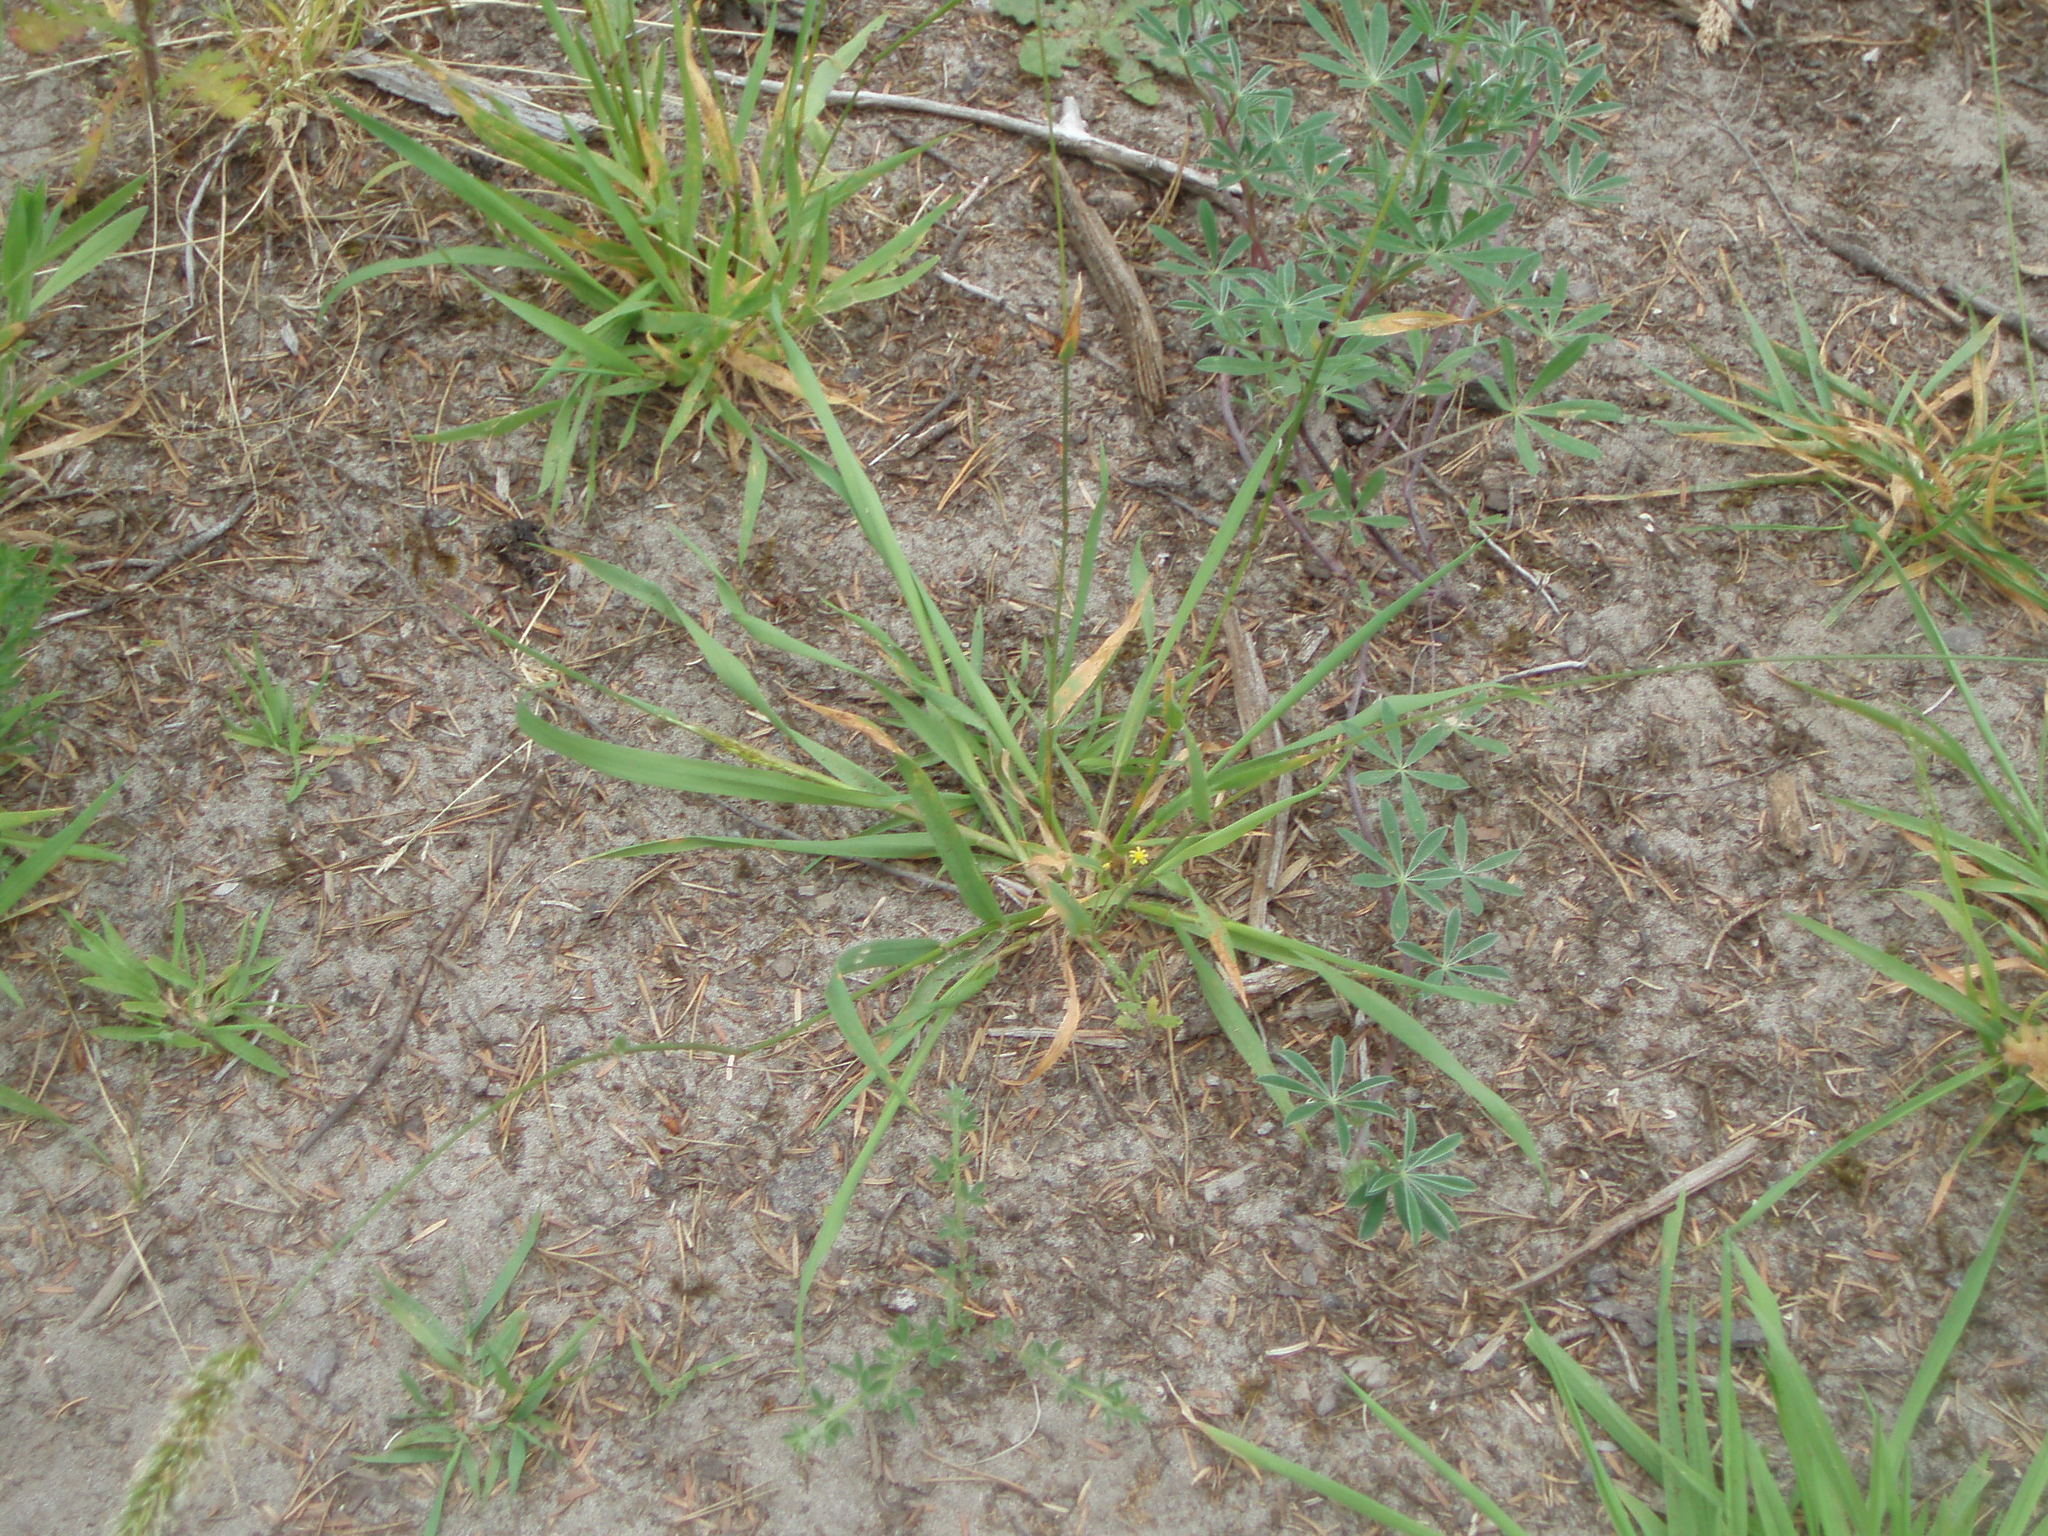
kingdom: Plantae
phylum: Tracheophyta
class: Liliopsida
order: Poales
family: Poaceae
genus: Anthoxanthum
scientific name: Anthoxanthum odoratum
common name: Sweet vernalgrass
